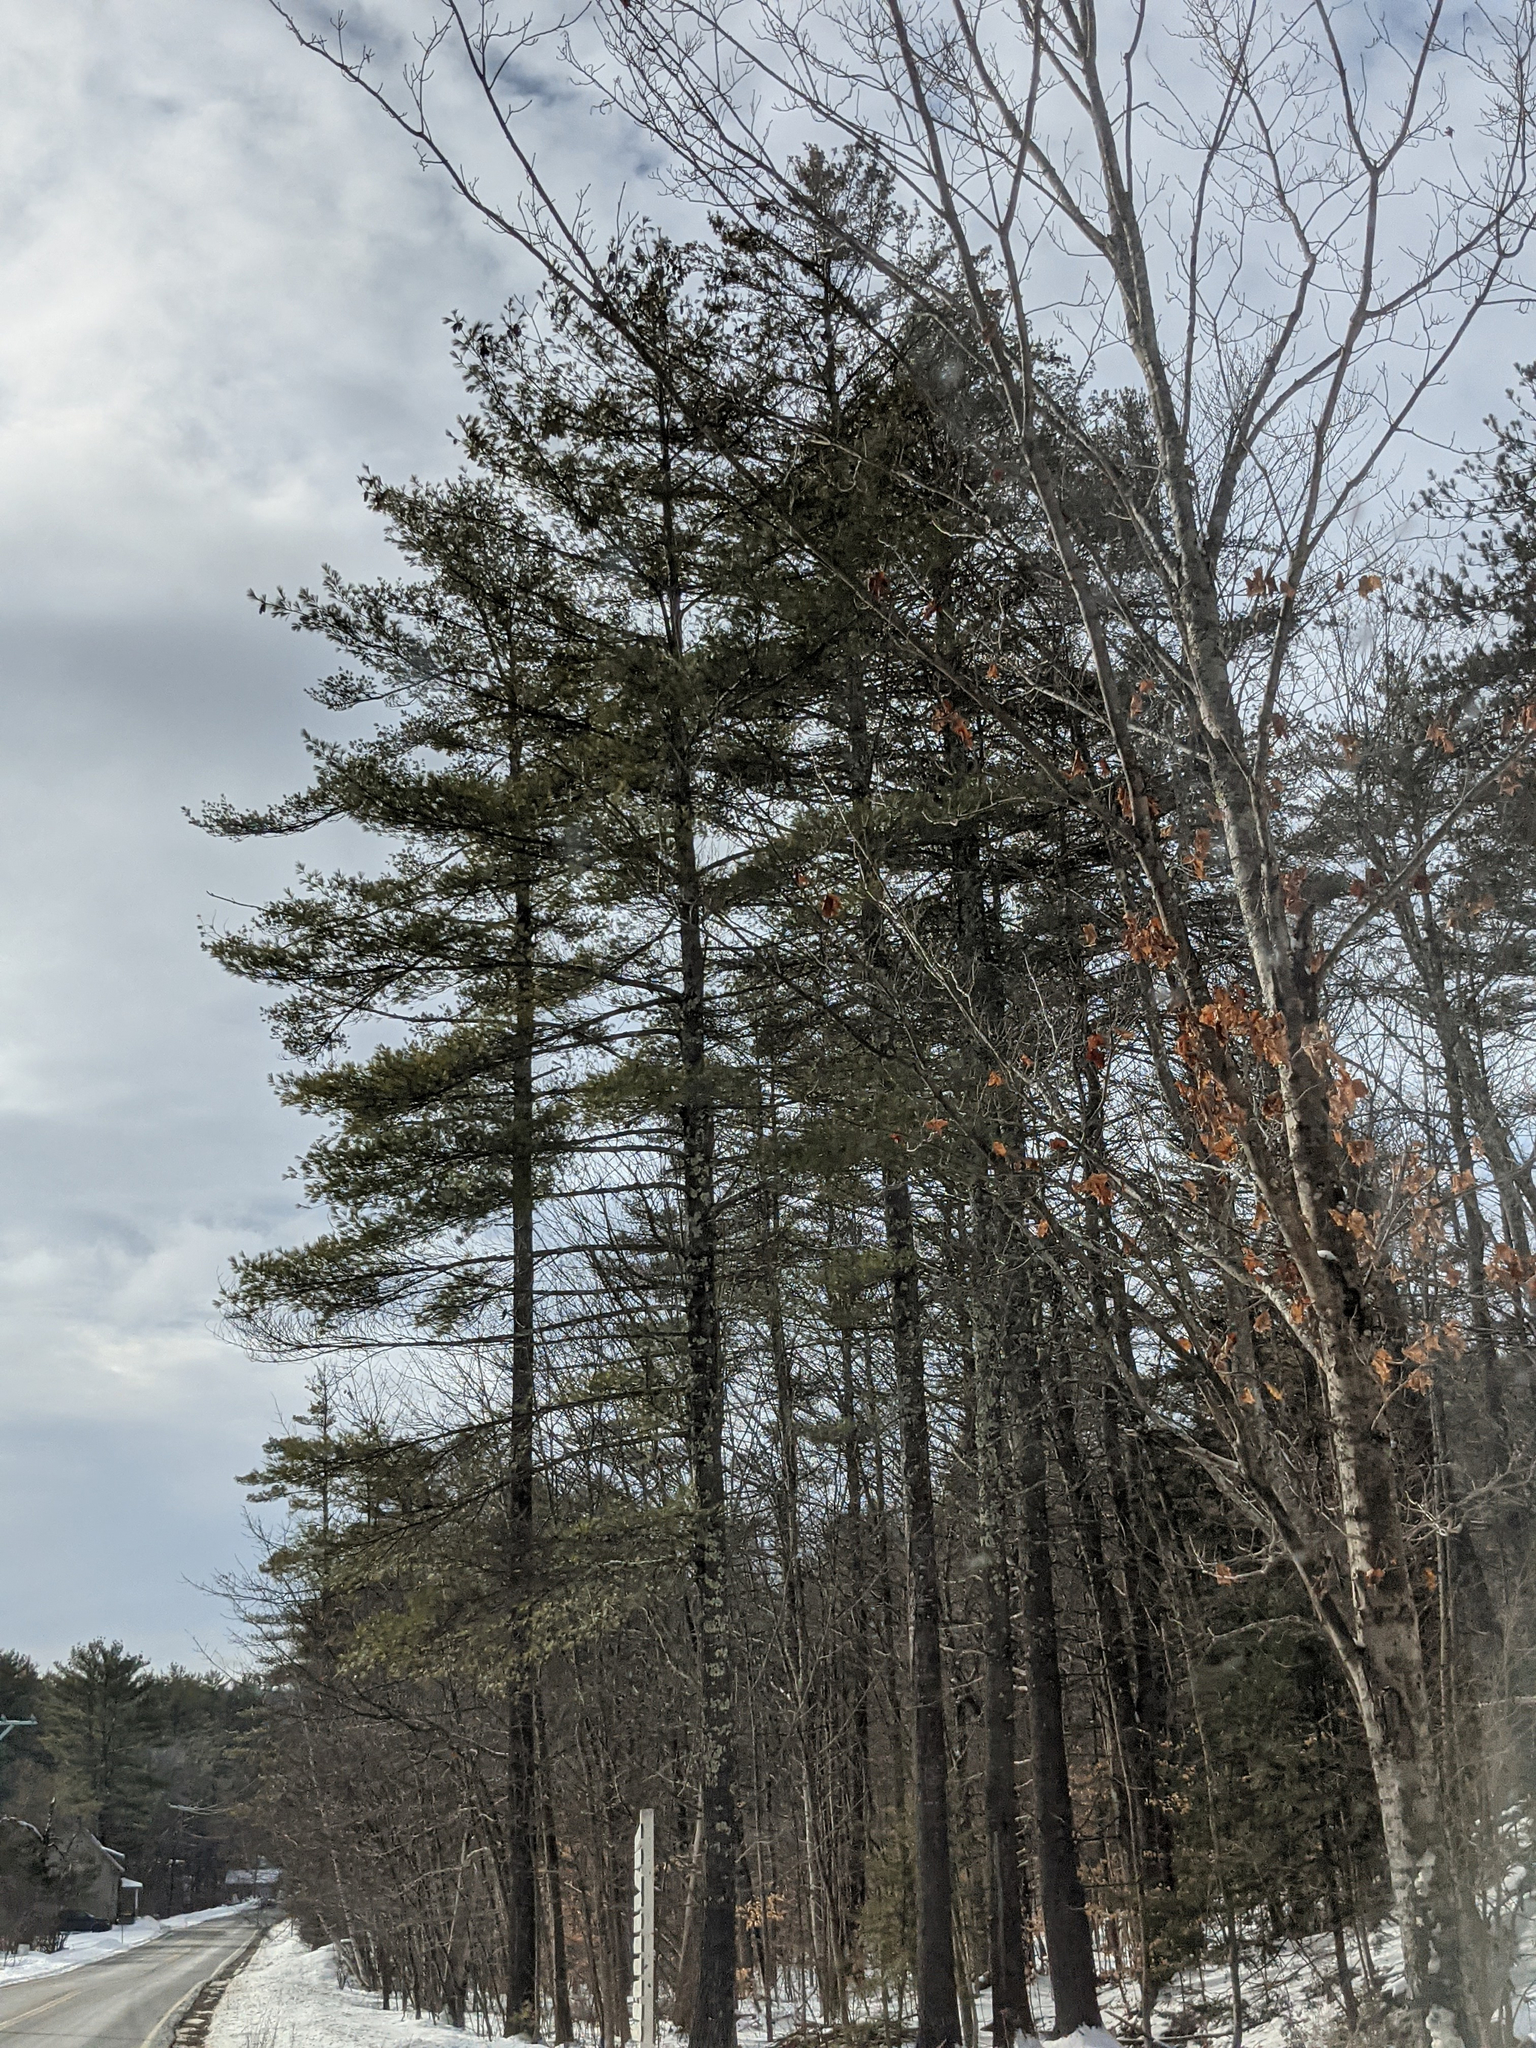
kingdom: Plantae
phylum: Tracheophyta
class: Pinopsida
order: Pinales
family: Pinaceae
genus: Pinus
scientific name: Pinus strobus
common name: Weymouth pine
